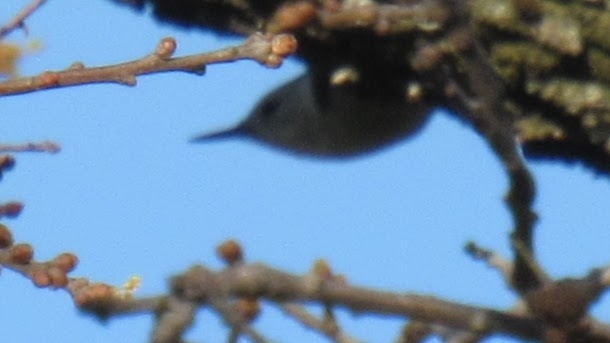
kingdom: Animalia
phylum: Chordata
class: Aves
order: Passeriformes
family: Sittidae
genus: Sitta
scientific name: Sitta carolinensis
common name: White-breasted nuthatch
